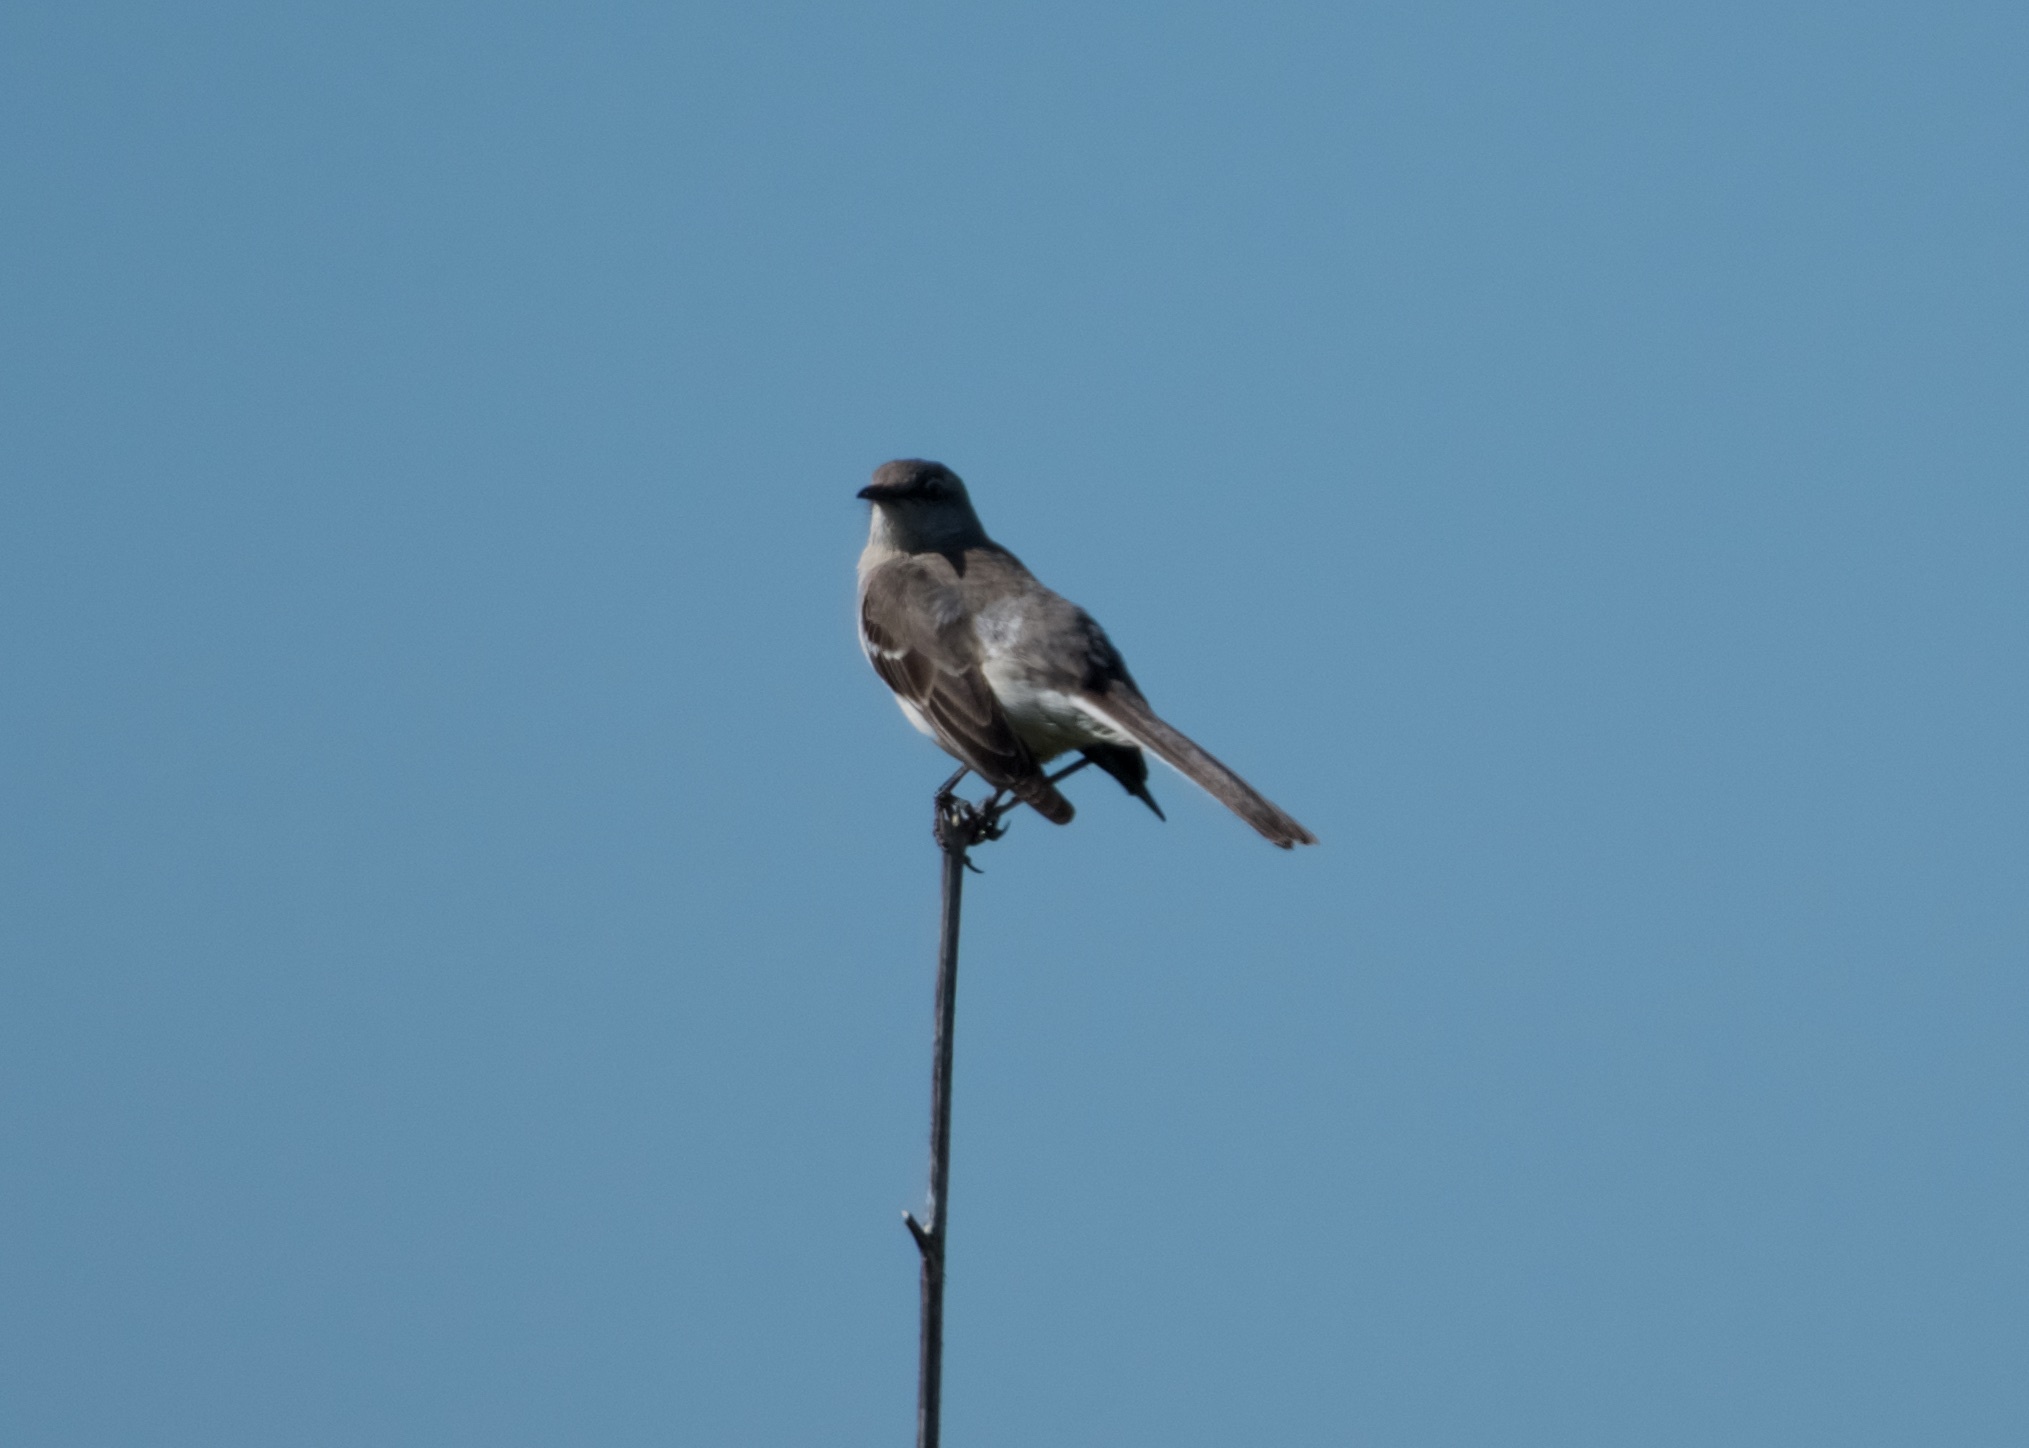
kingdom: Animalia
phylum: Chordata
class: Aves
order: Passeriformes
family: Mimidae
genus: Mimus
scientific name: Mimus polyglottos
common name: Northern mockingbird
